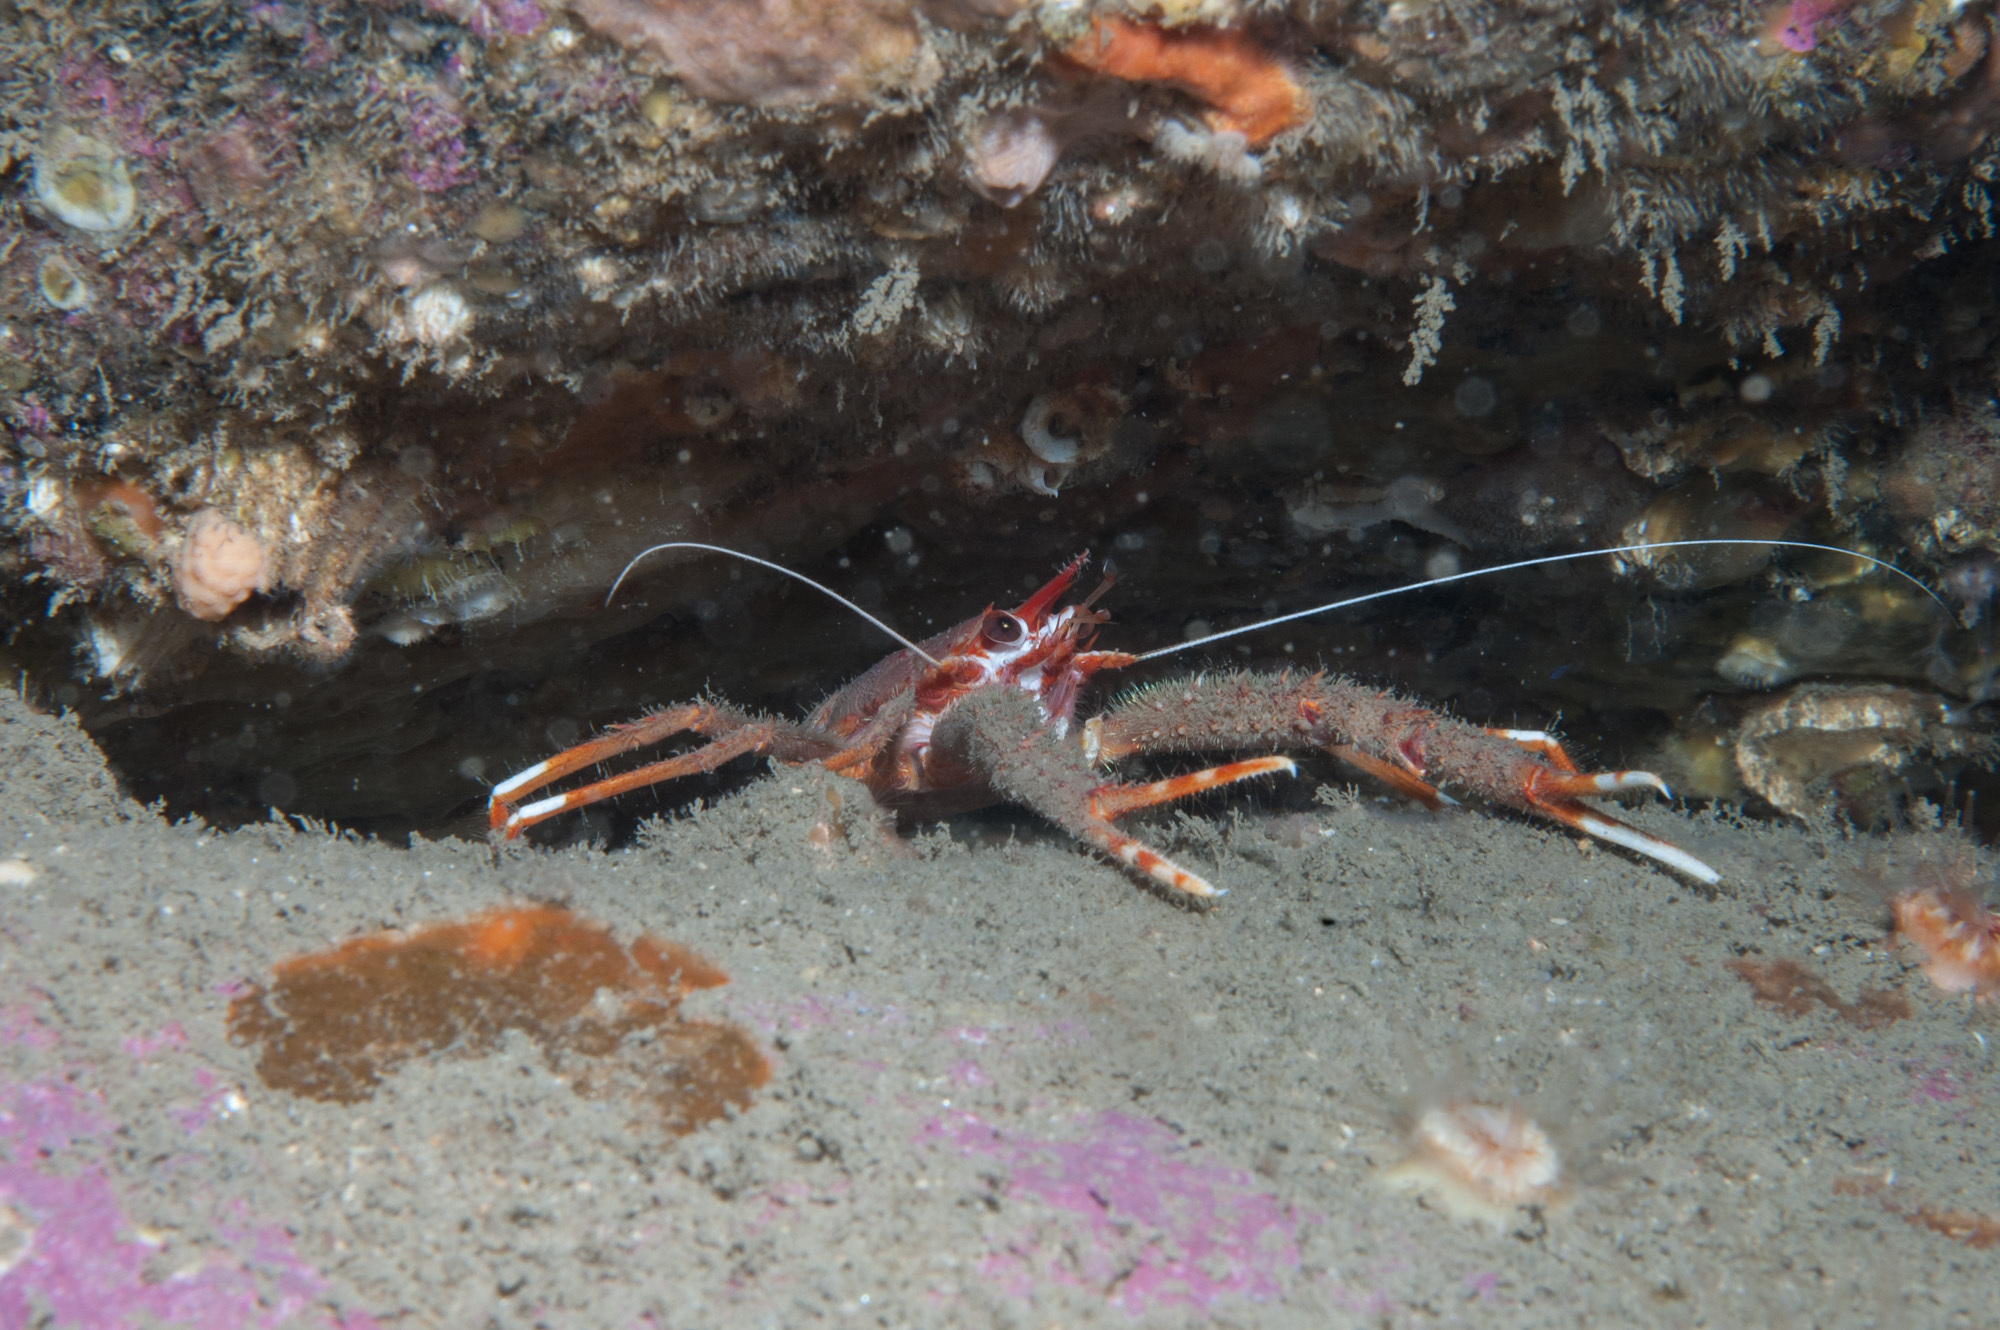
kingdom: Animalia
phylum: Arthropoda
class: Malacostraca
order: Decapoda
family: Munididae
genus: Munida
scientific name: Munida rugosa
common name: Rugose squat lobster
